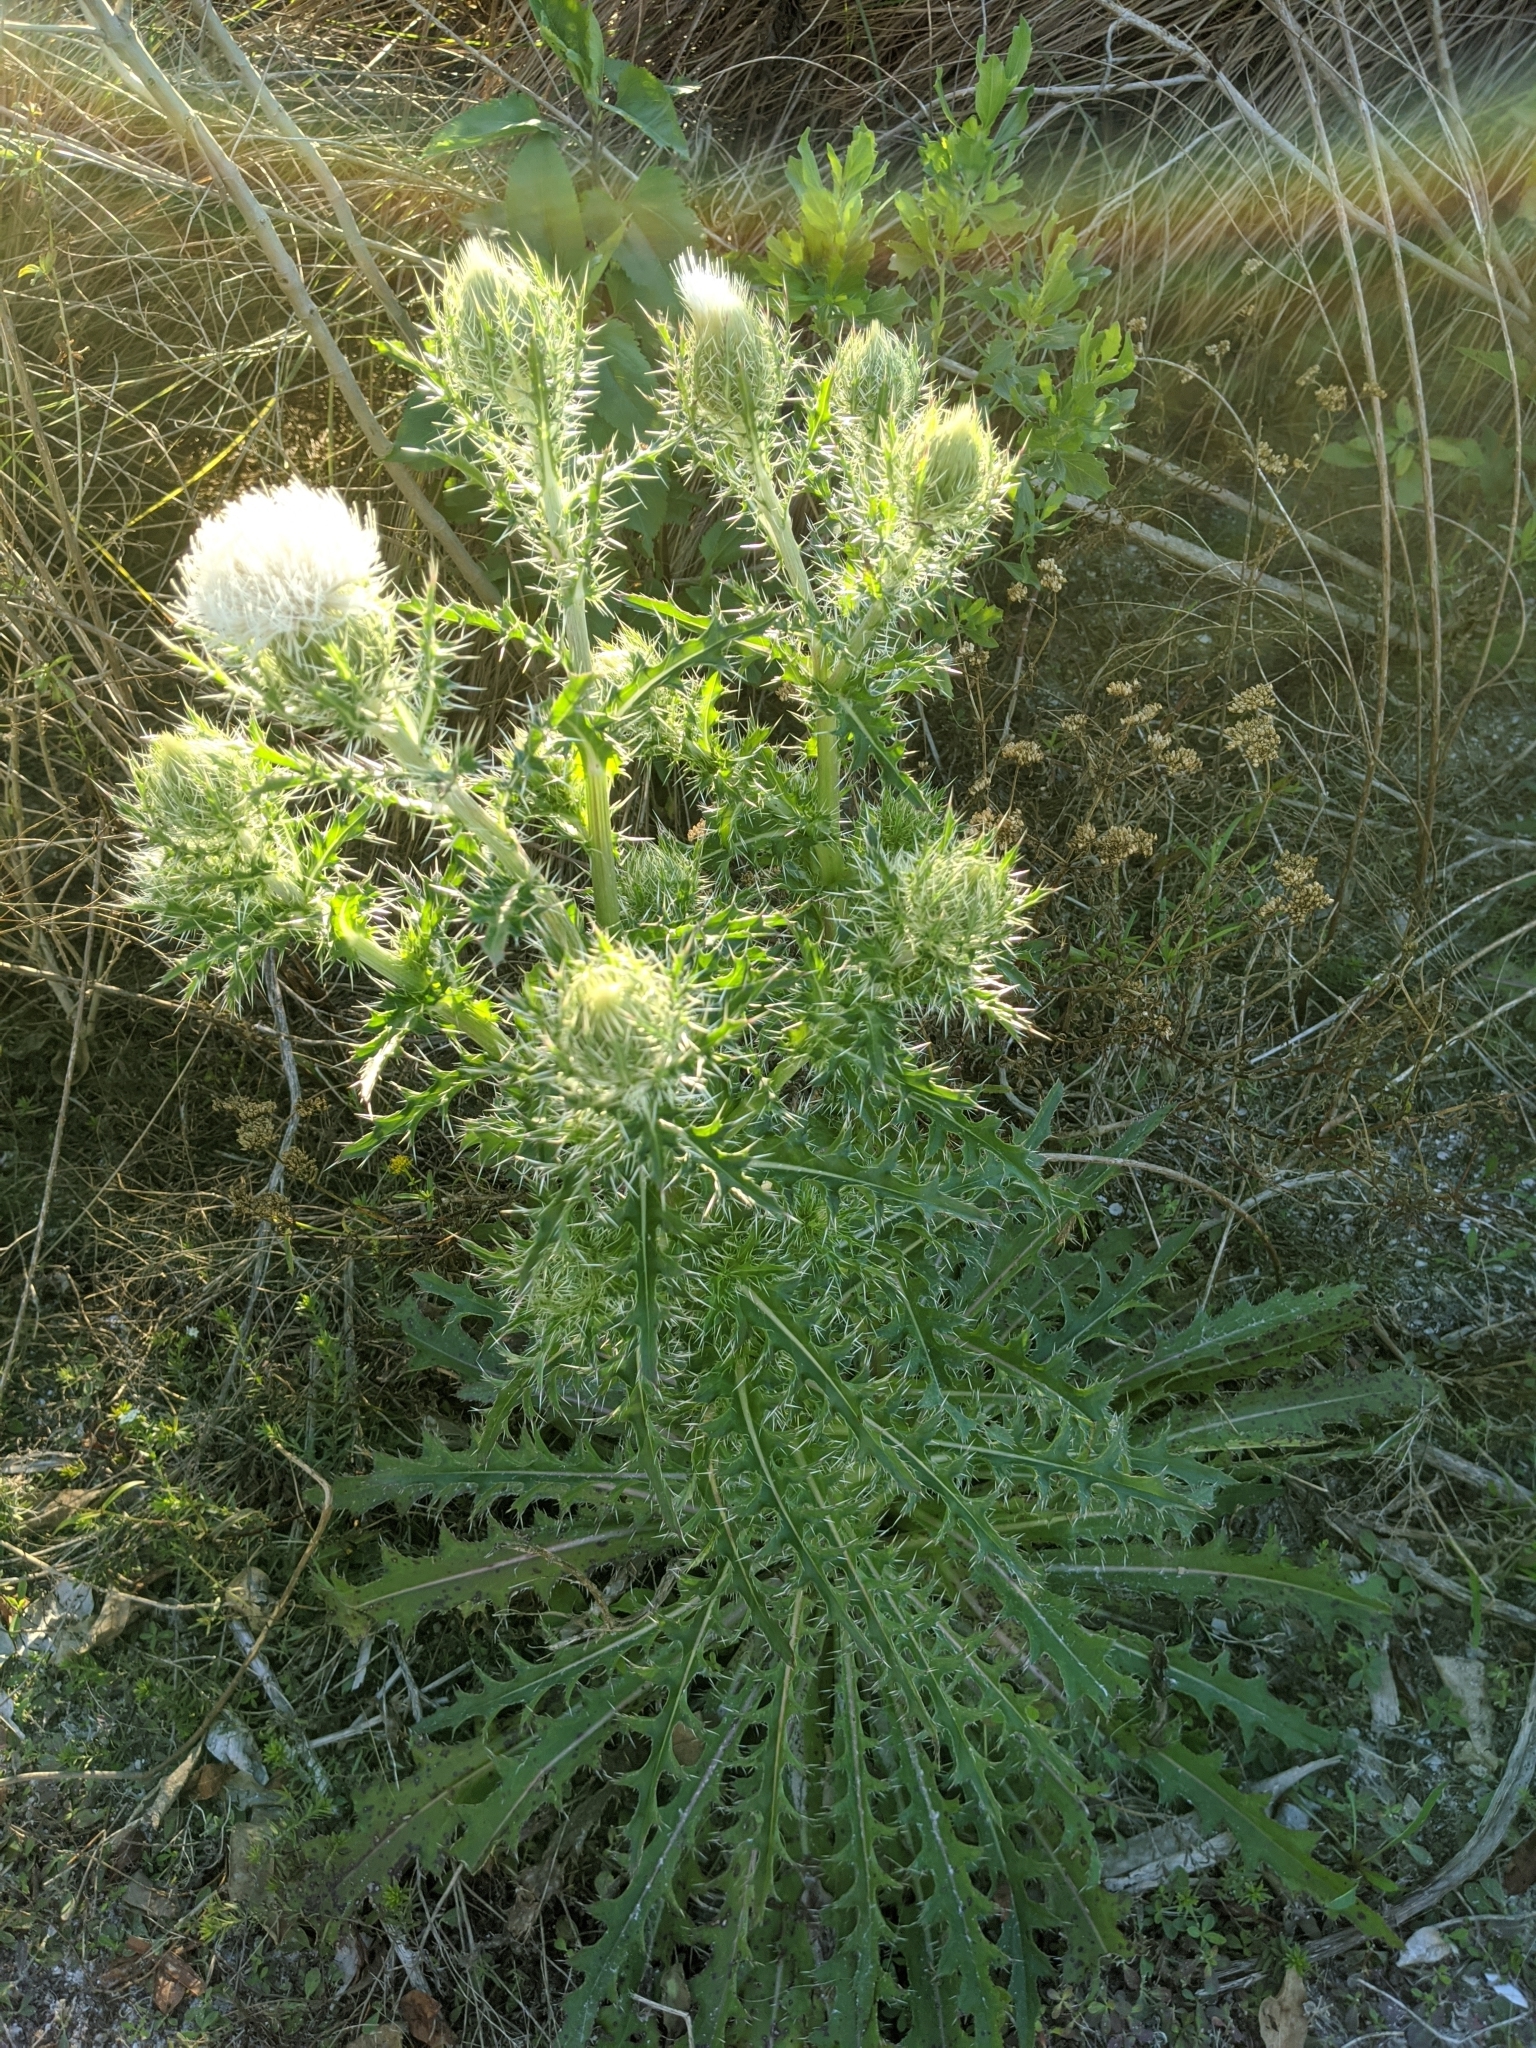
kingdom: Plantae
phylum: Tracheophyta
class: Magnoliopsida
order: Asterales
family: Asteraceae
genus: Cirsium
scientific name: Cirsium horridulum
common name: Bristly thistle
